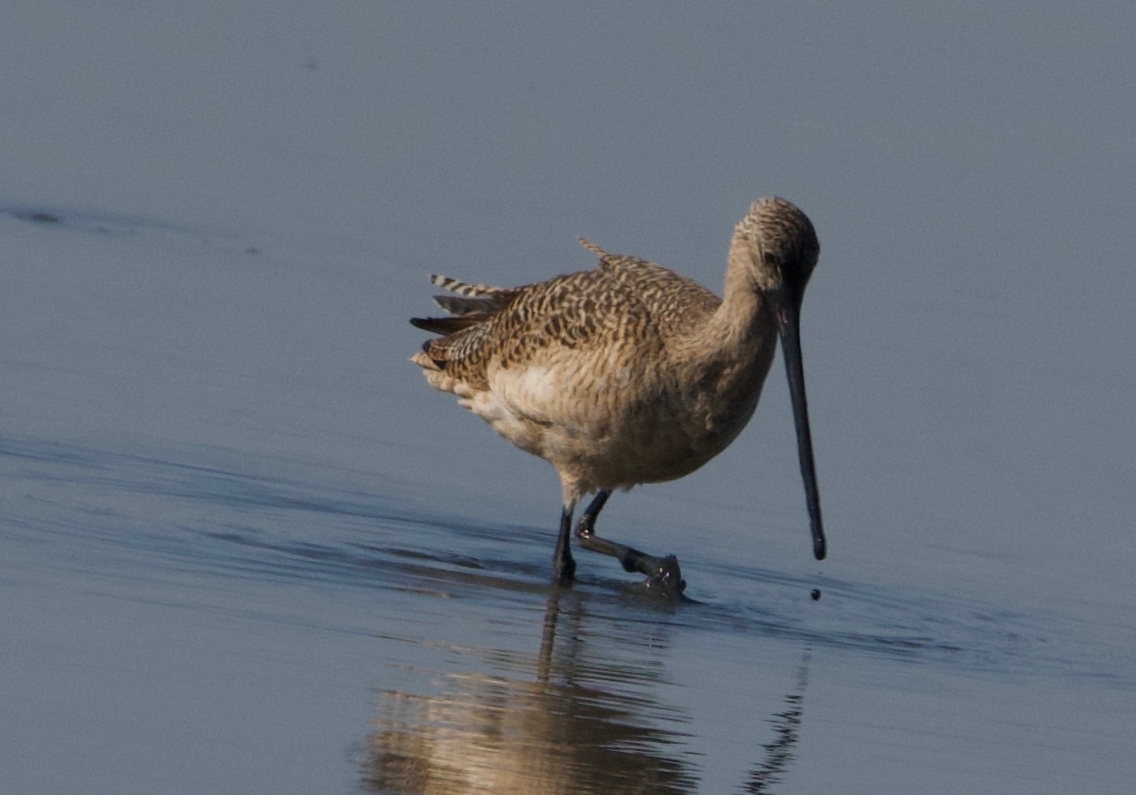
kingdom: Animalia
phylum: Chordata
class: Aves
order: Charadriiformes
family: Scolopacidae
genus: Limosa
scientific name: Limosa fedoa
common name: Marbled godwit
